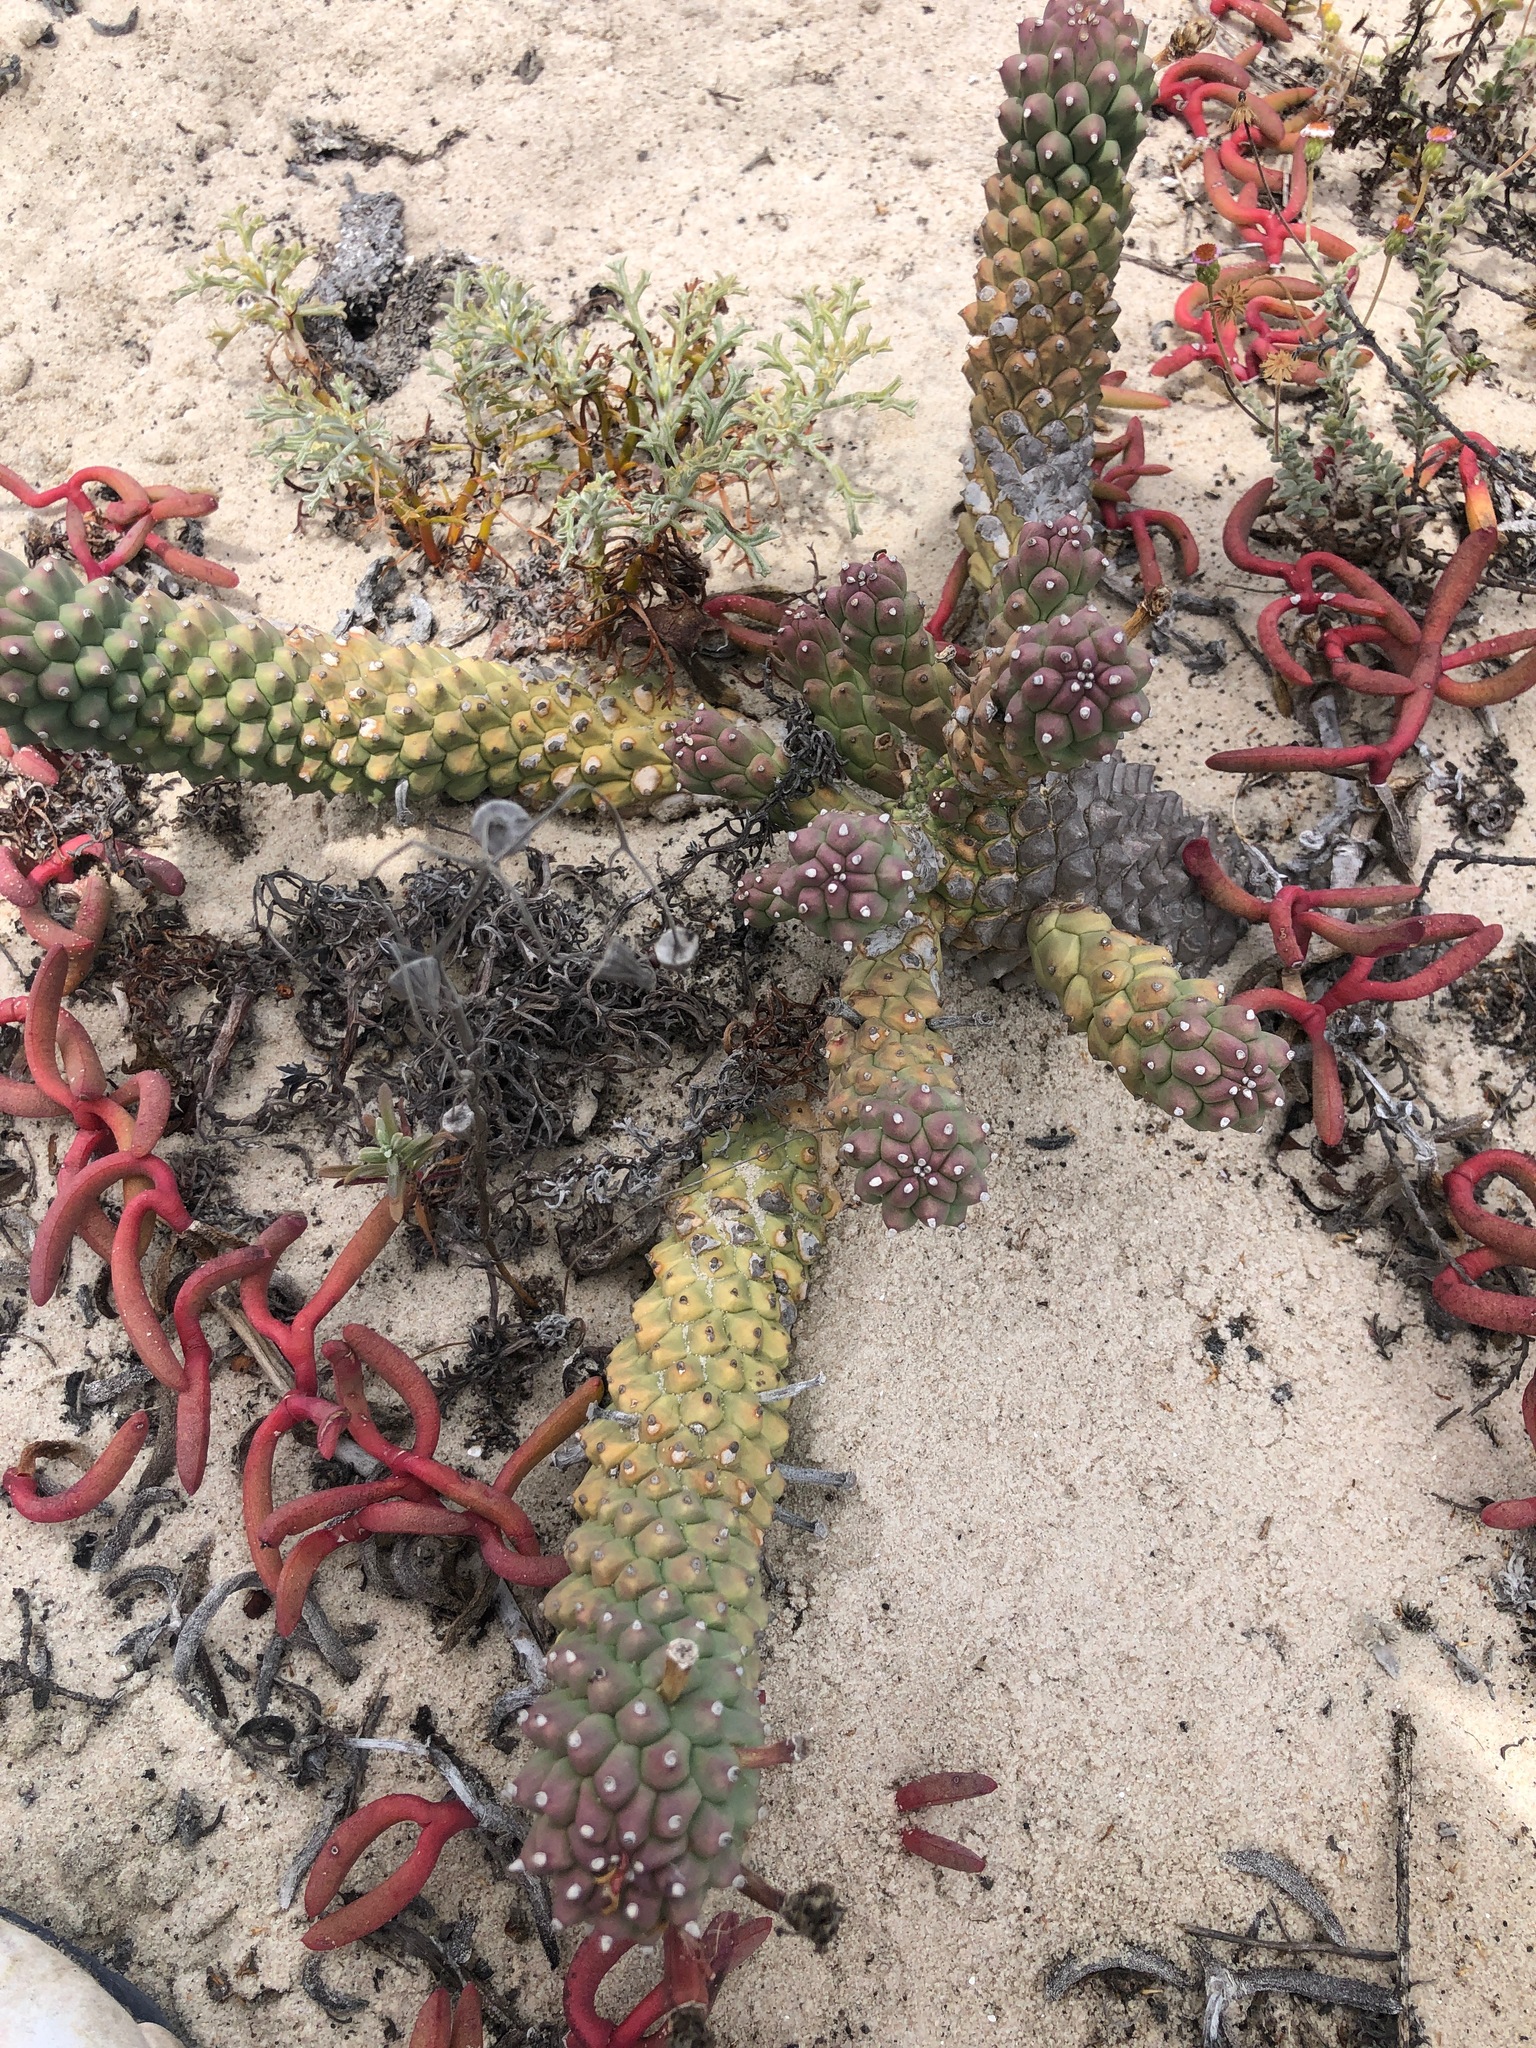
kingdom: Plantae
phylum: Tracheophyta
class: Magnoliopsida
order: Malpighiales
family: Euphorbiaceae
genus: Euphorbia
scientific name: Euphorbia caput-medusae
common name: Medusa's-head
